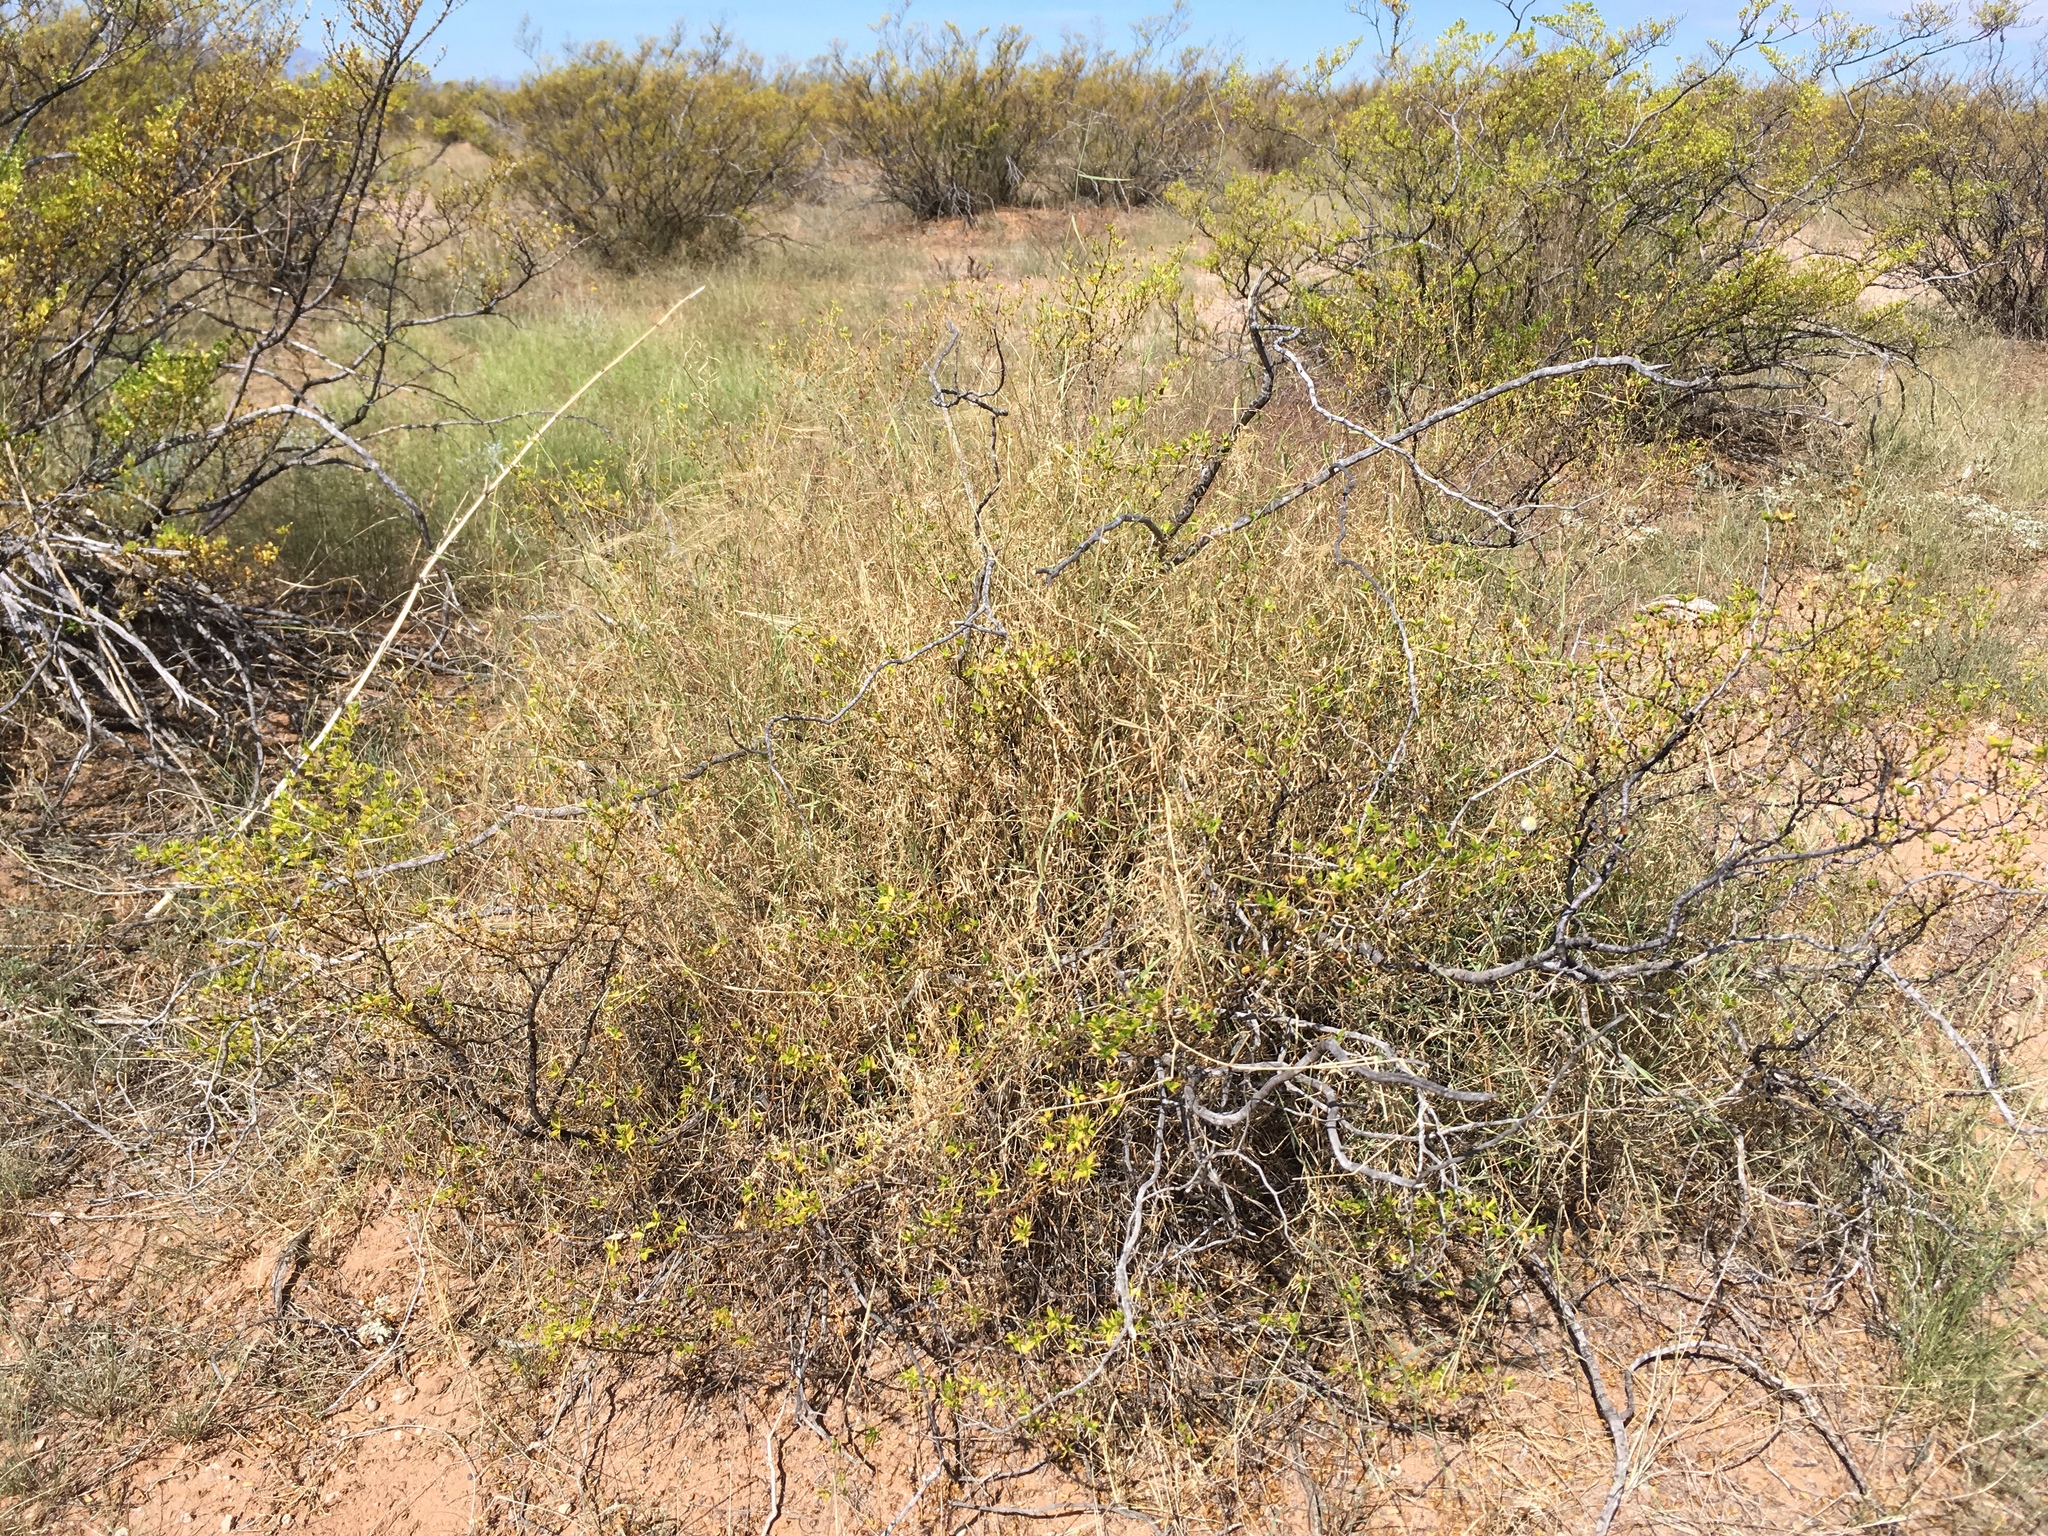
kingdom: Plantae
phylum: Tracheophyta
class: Liliopsida
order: Poales
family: Poaceae
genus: Muhlenbergia
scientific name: Muhlenbergia porteri
